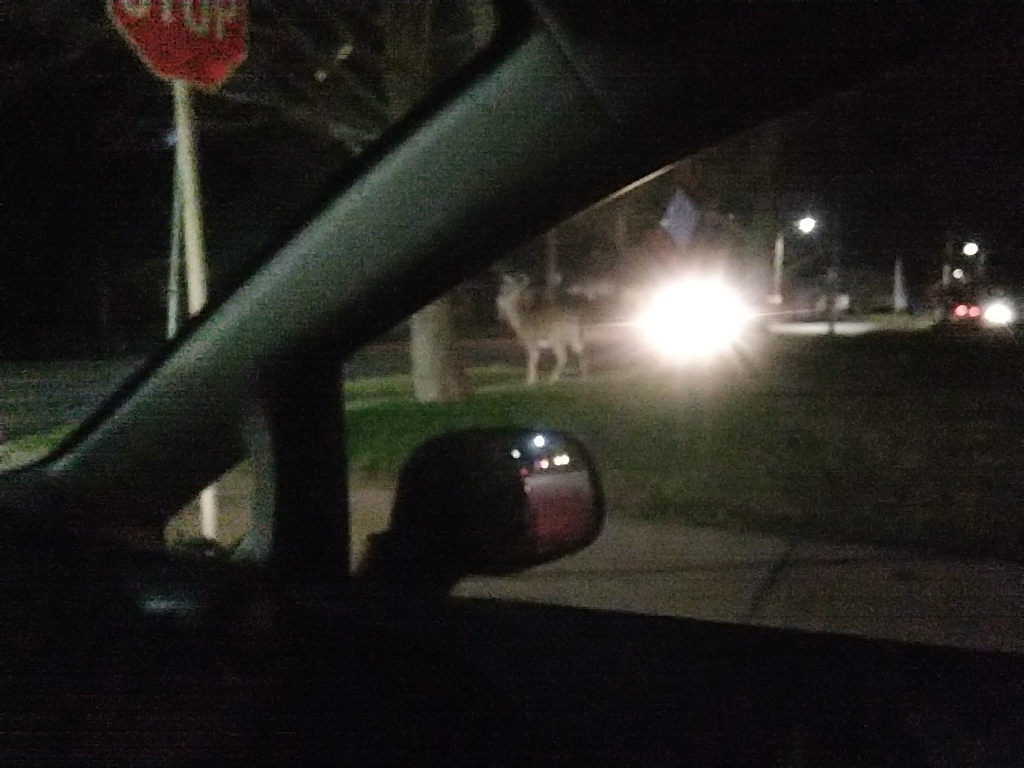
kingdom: Animalia
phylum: Chordata
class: Mammalia
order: Artiodactyla
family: Cervidae
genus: Odocoileus
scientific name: Odocoileus virginianus
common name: White-tailed deer
